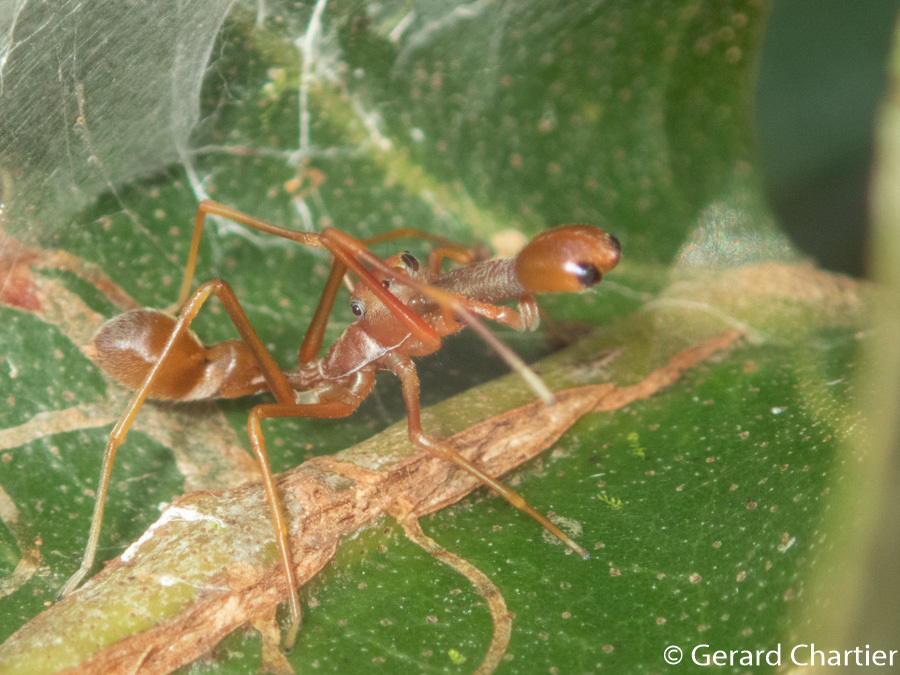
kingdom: Animalia
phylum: Arthropoda
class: Arachnida
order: Araneae
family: Salticidae
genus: Myrmaplata
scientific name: Myrmaplata plataleoides
